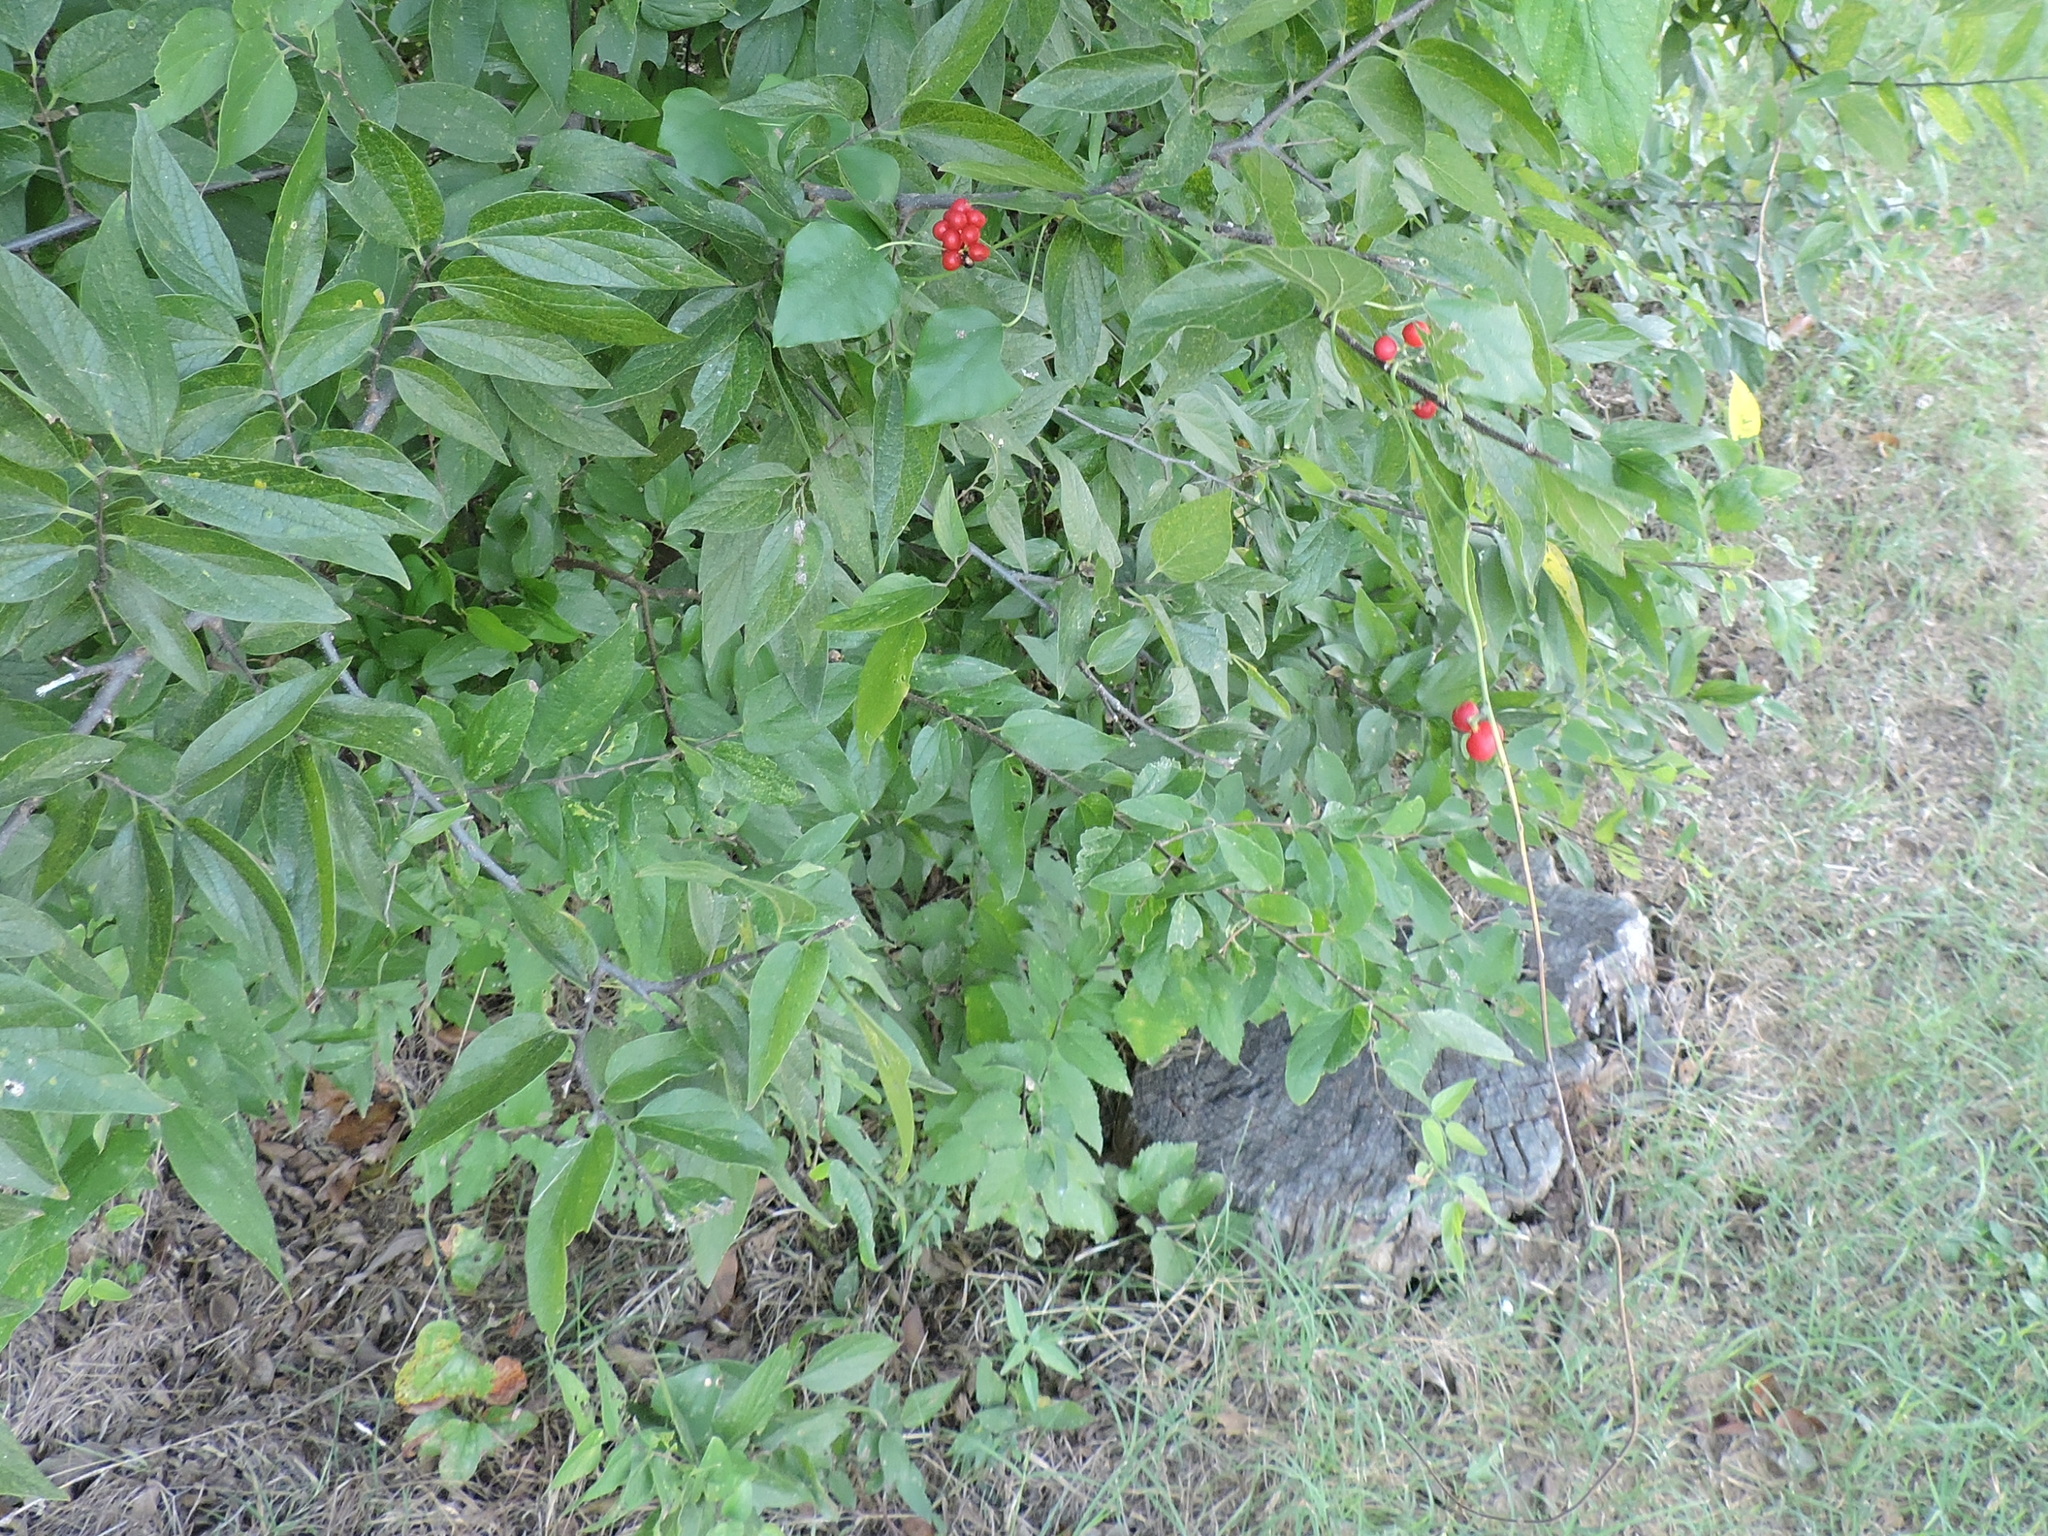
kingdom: Plantae
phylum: Tracheophyta
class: Magnoliopsida
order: Ranunculales
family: Menispermaceae
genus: Cocculus
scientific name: Cocculus carolinus
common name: Carolina moonseed
